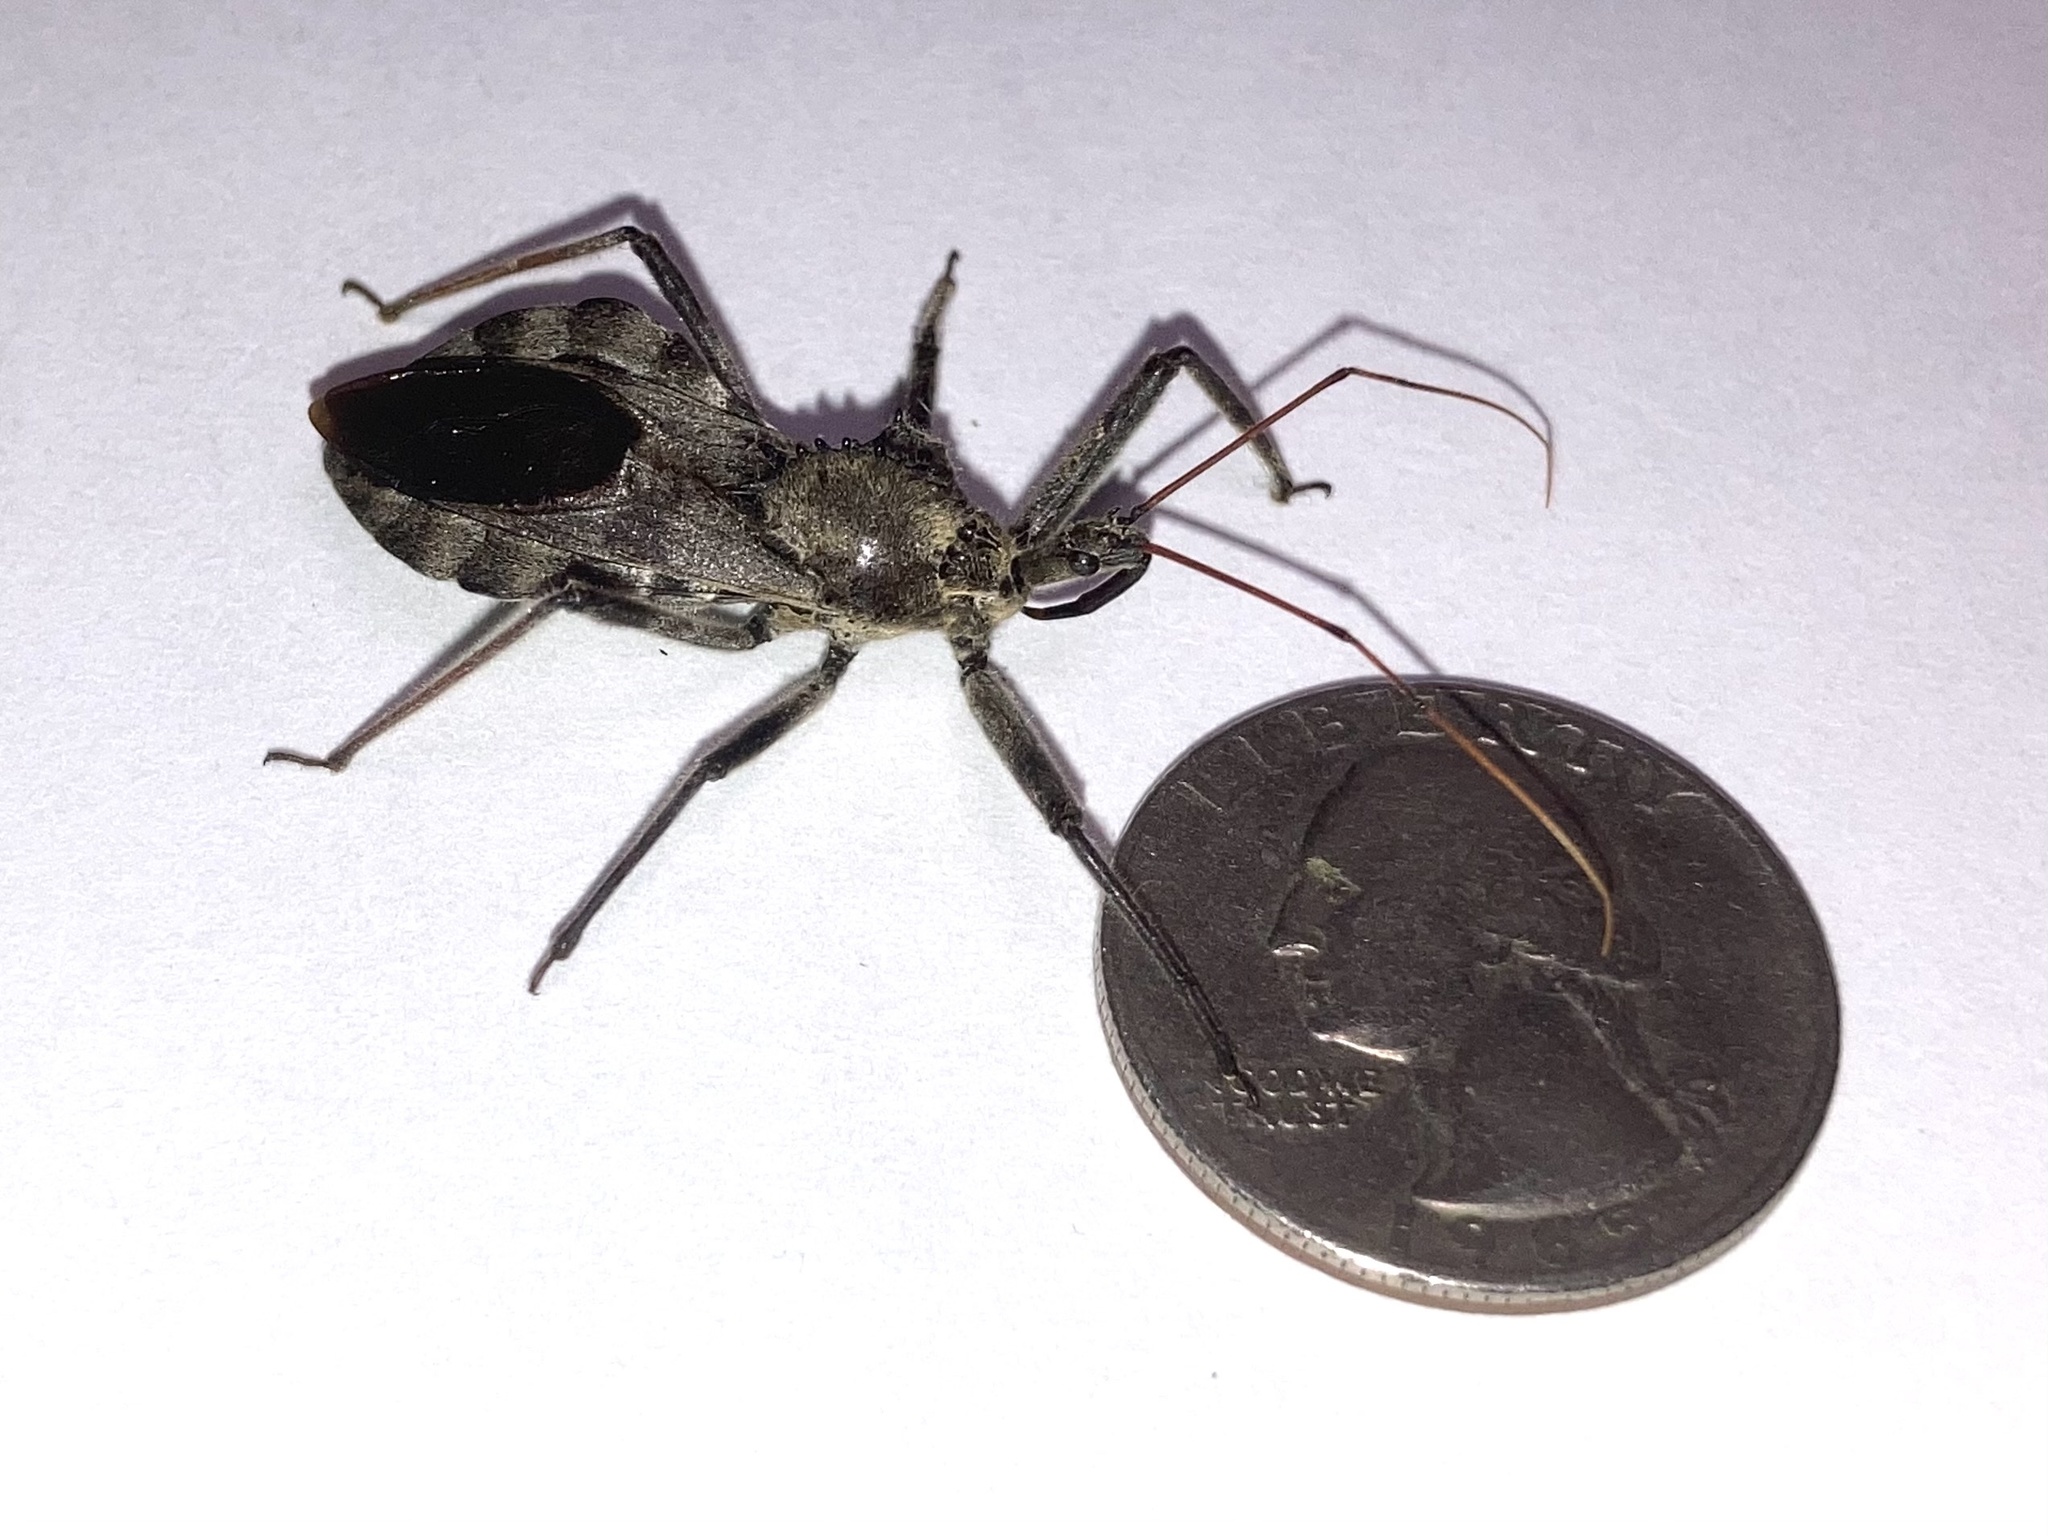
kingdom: Animalia
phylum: Arthropoda
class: Insecta
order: Hemiptera
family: Reduviidae
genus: Arilus
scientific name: Arilus cristatus
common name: North american wheel bug
